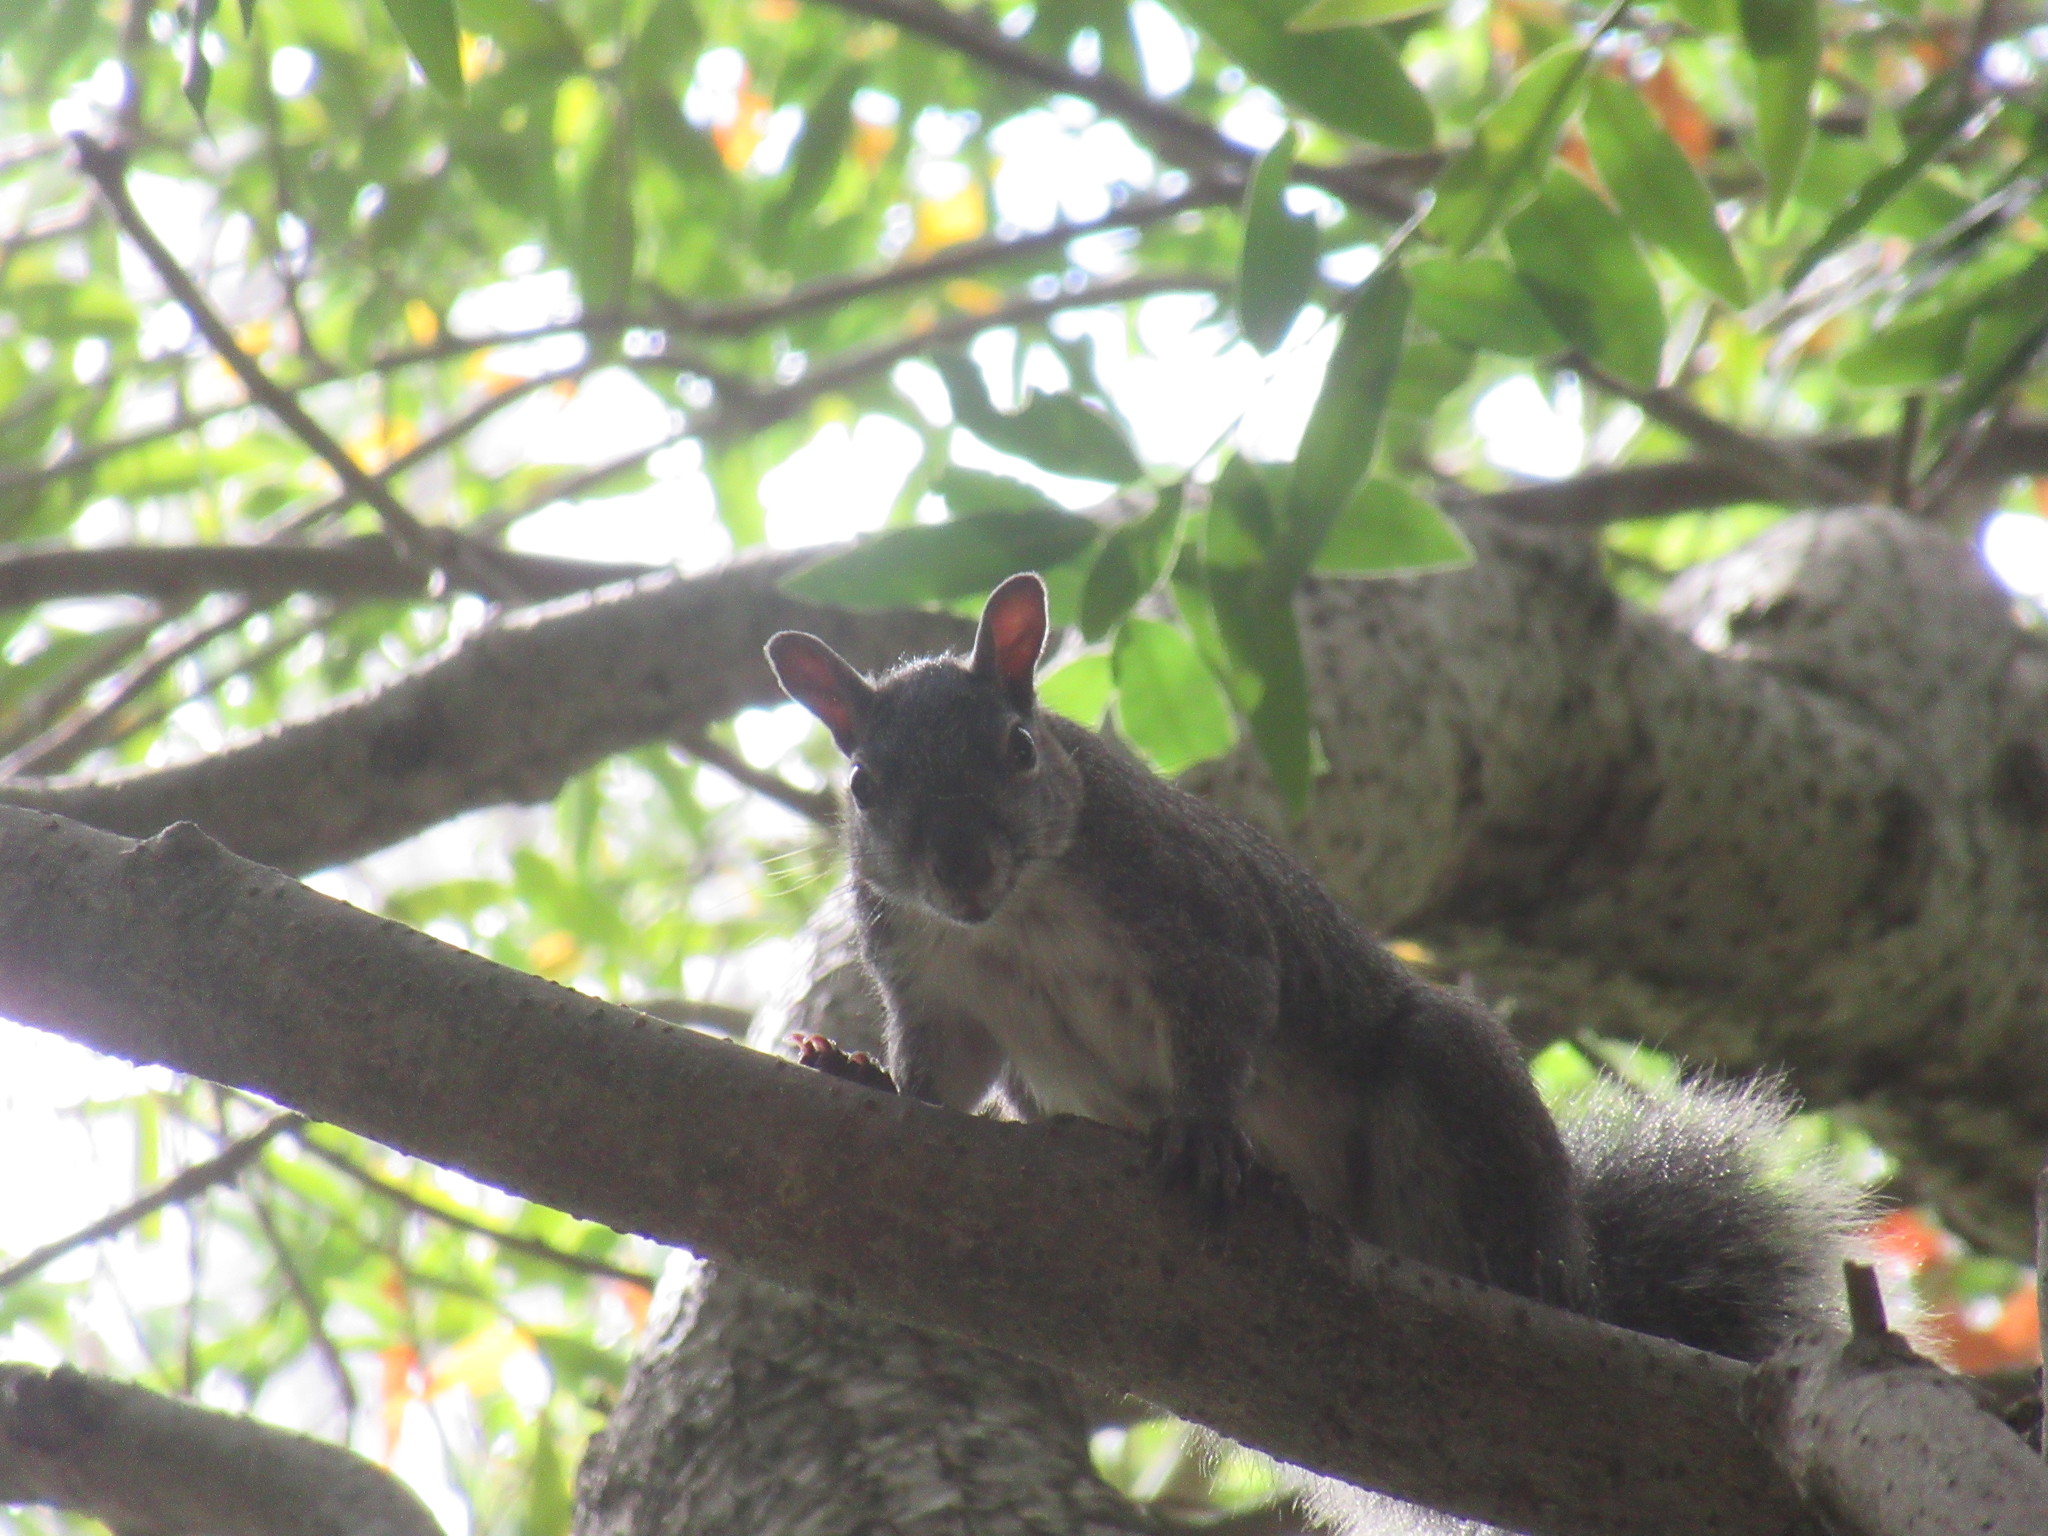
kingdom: Animalia
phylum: Chordata
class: Mammalia
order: Rodentia
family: Sciuridae
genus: Sciurus
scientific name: Sciurus griseus
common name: Western gray squirrel
